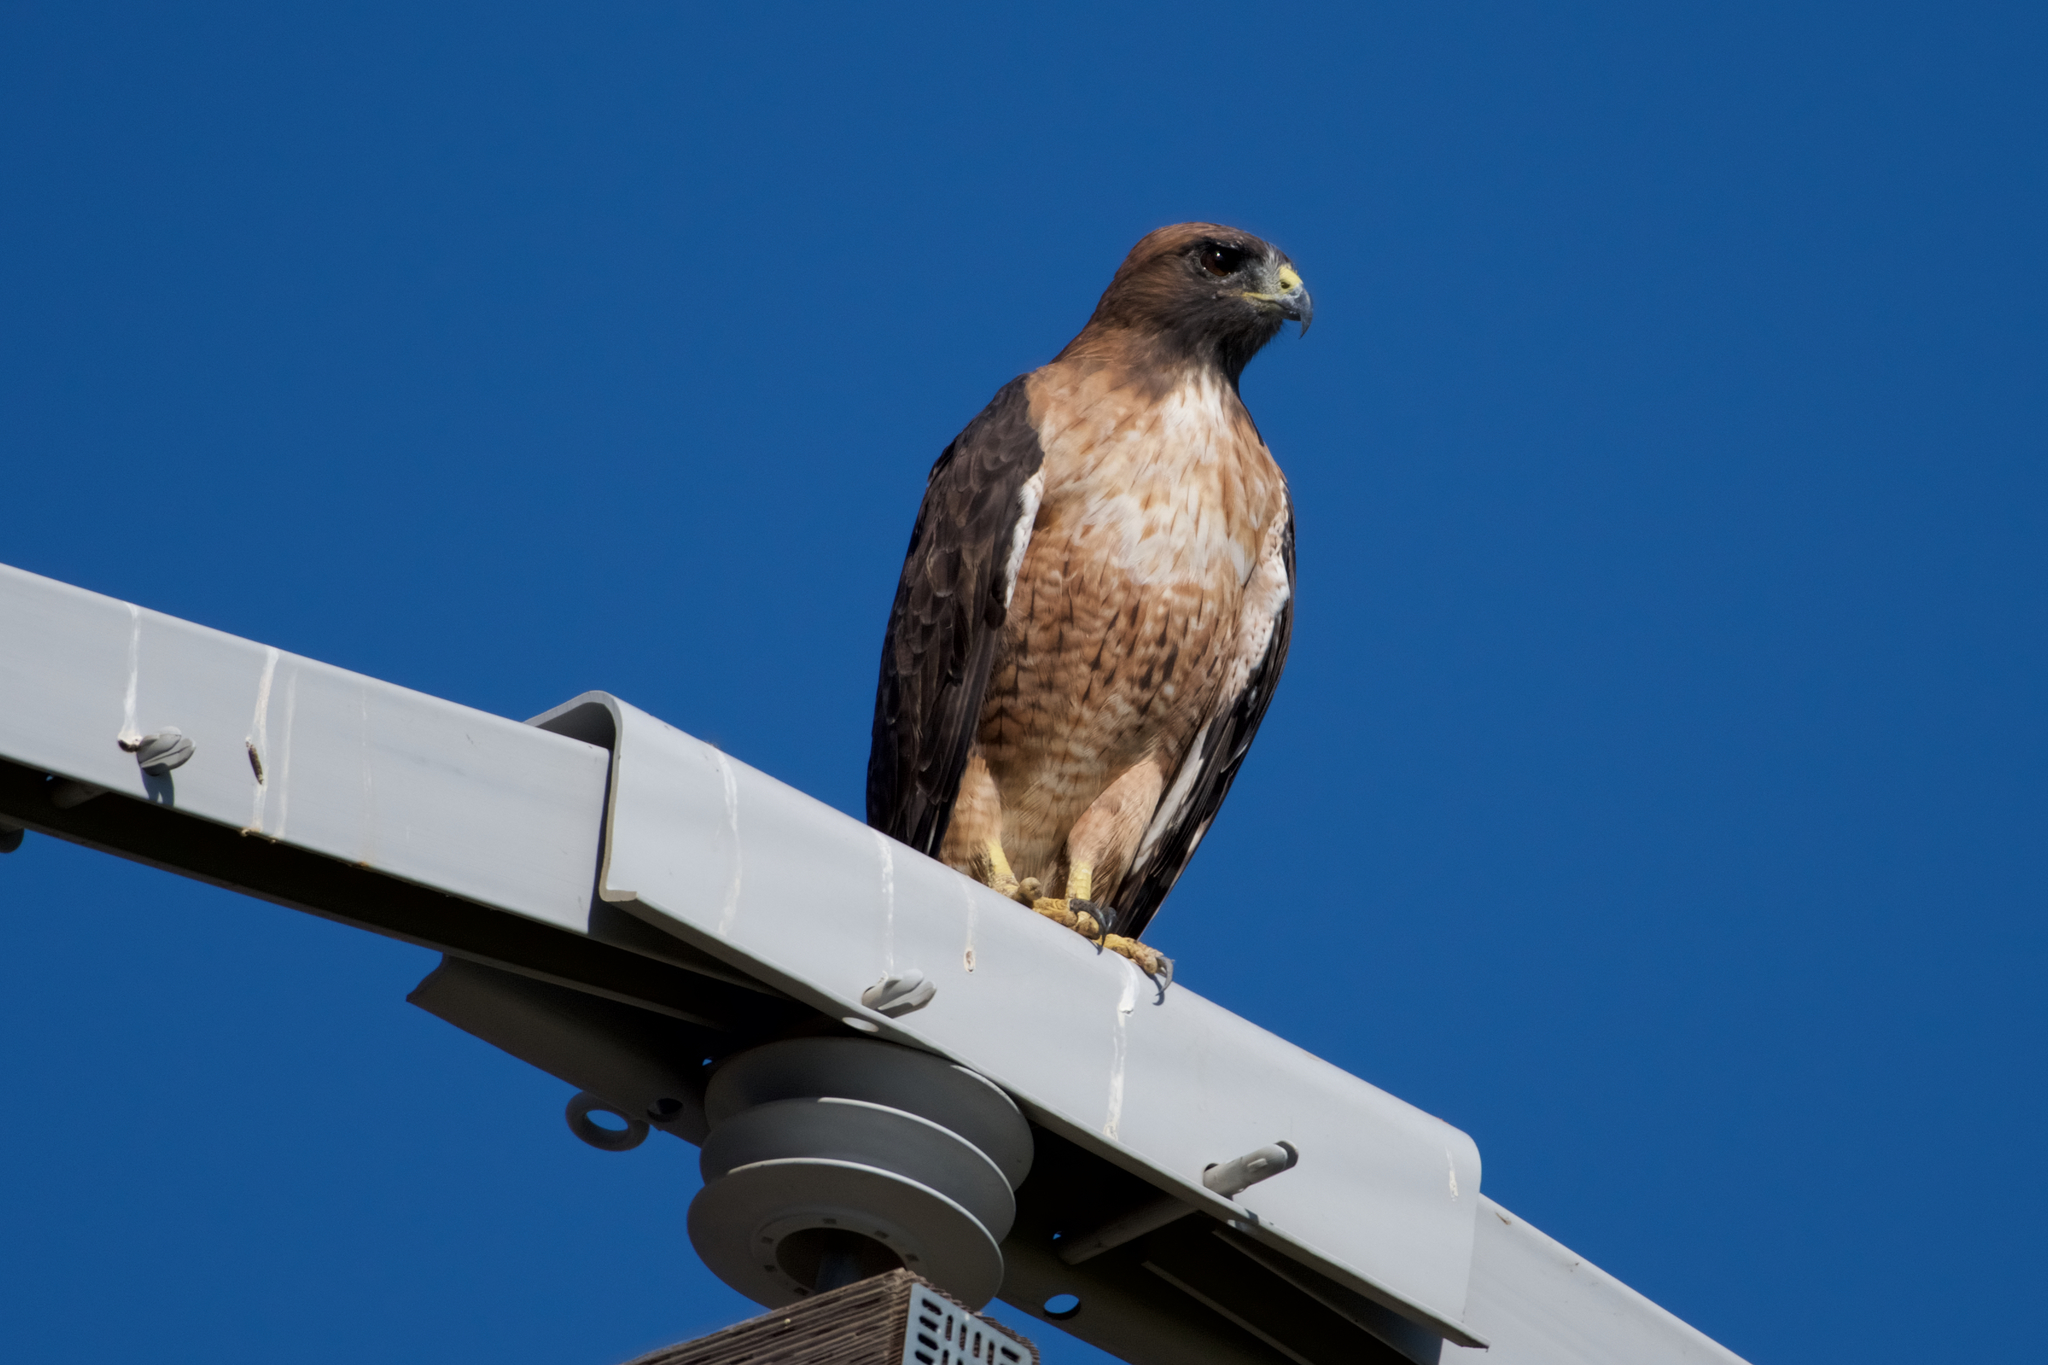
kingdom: Animalia
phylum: Chordata
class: Aves
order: Accipitriformes
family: Accipitridae
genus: Buteo
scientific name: Buteo jamaicensis
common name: Red-tailed hawk
